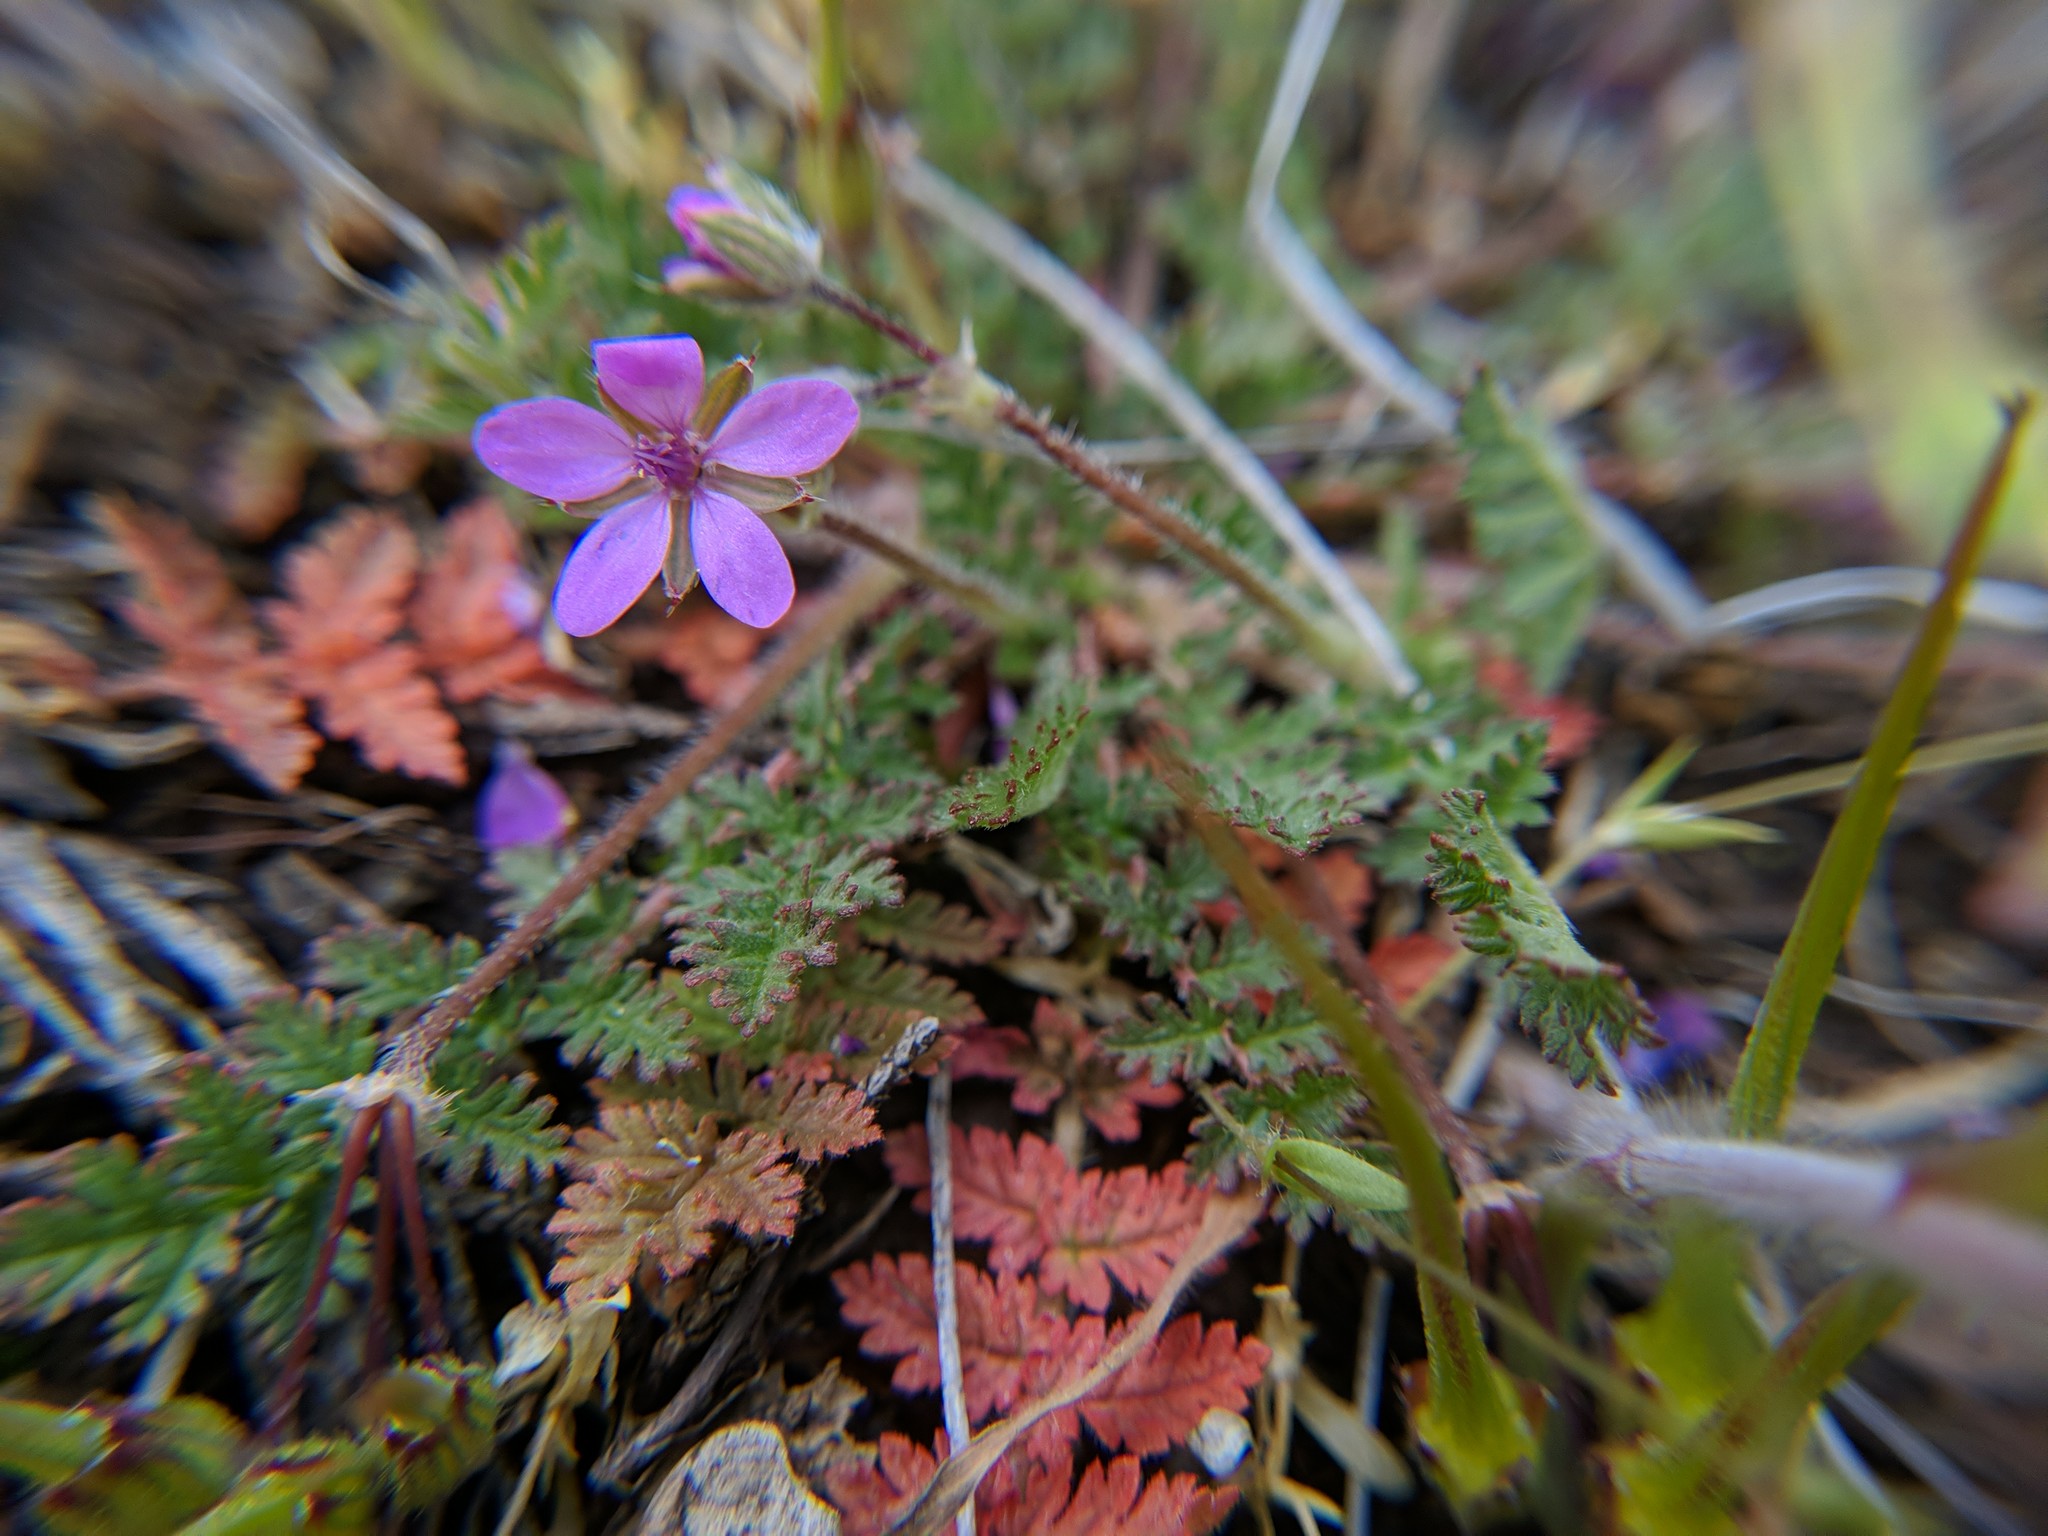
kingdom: Plantae
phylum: Tracheophyta
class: Magnoliopsida
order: Geraniales
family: Geraniaceae
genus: Erodium
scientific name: Erodium cicutarium
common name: Common stork's-bill
